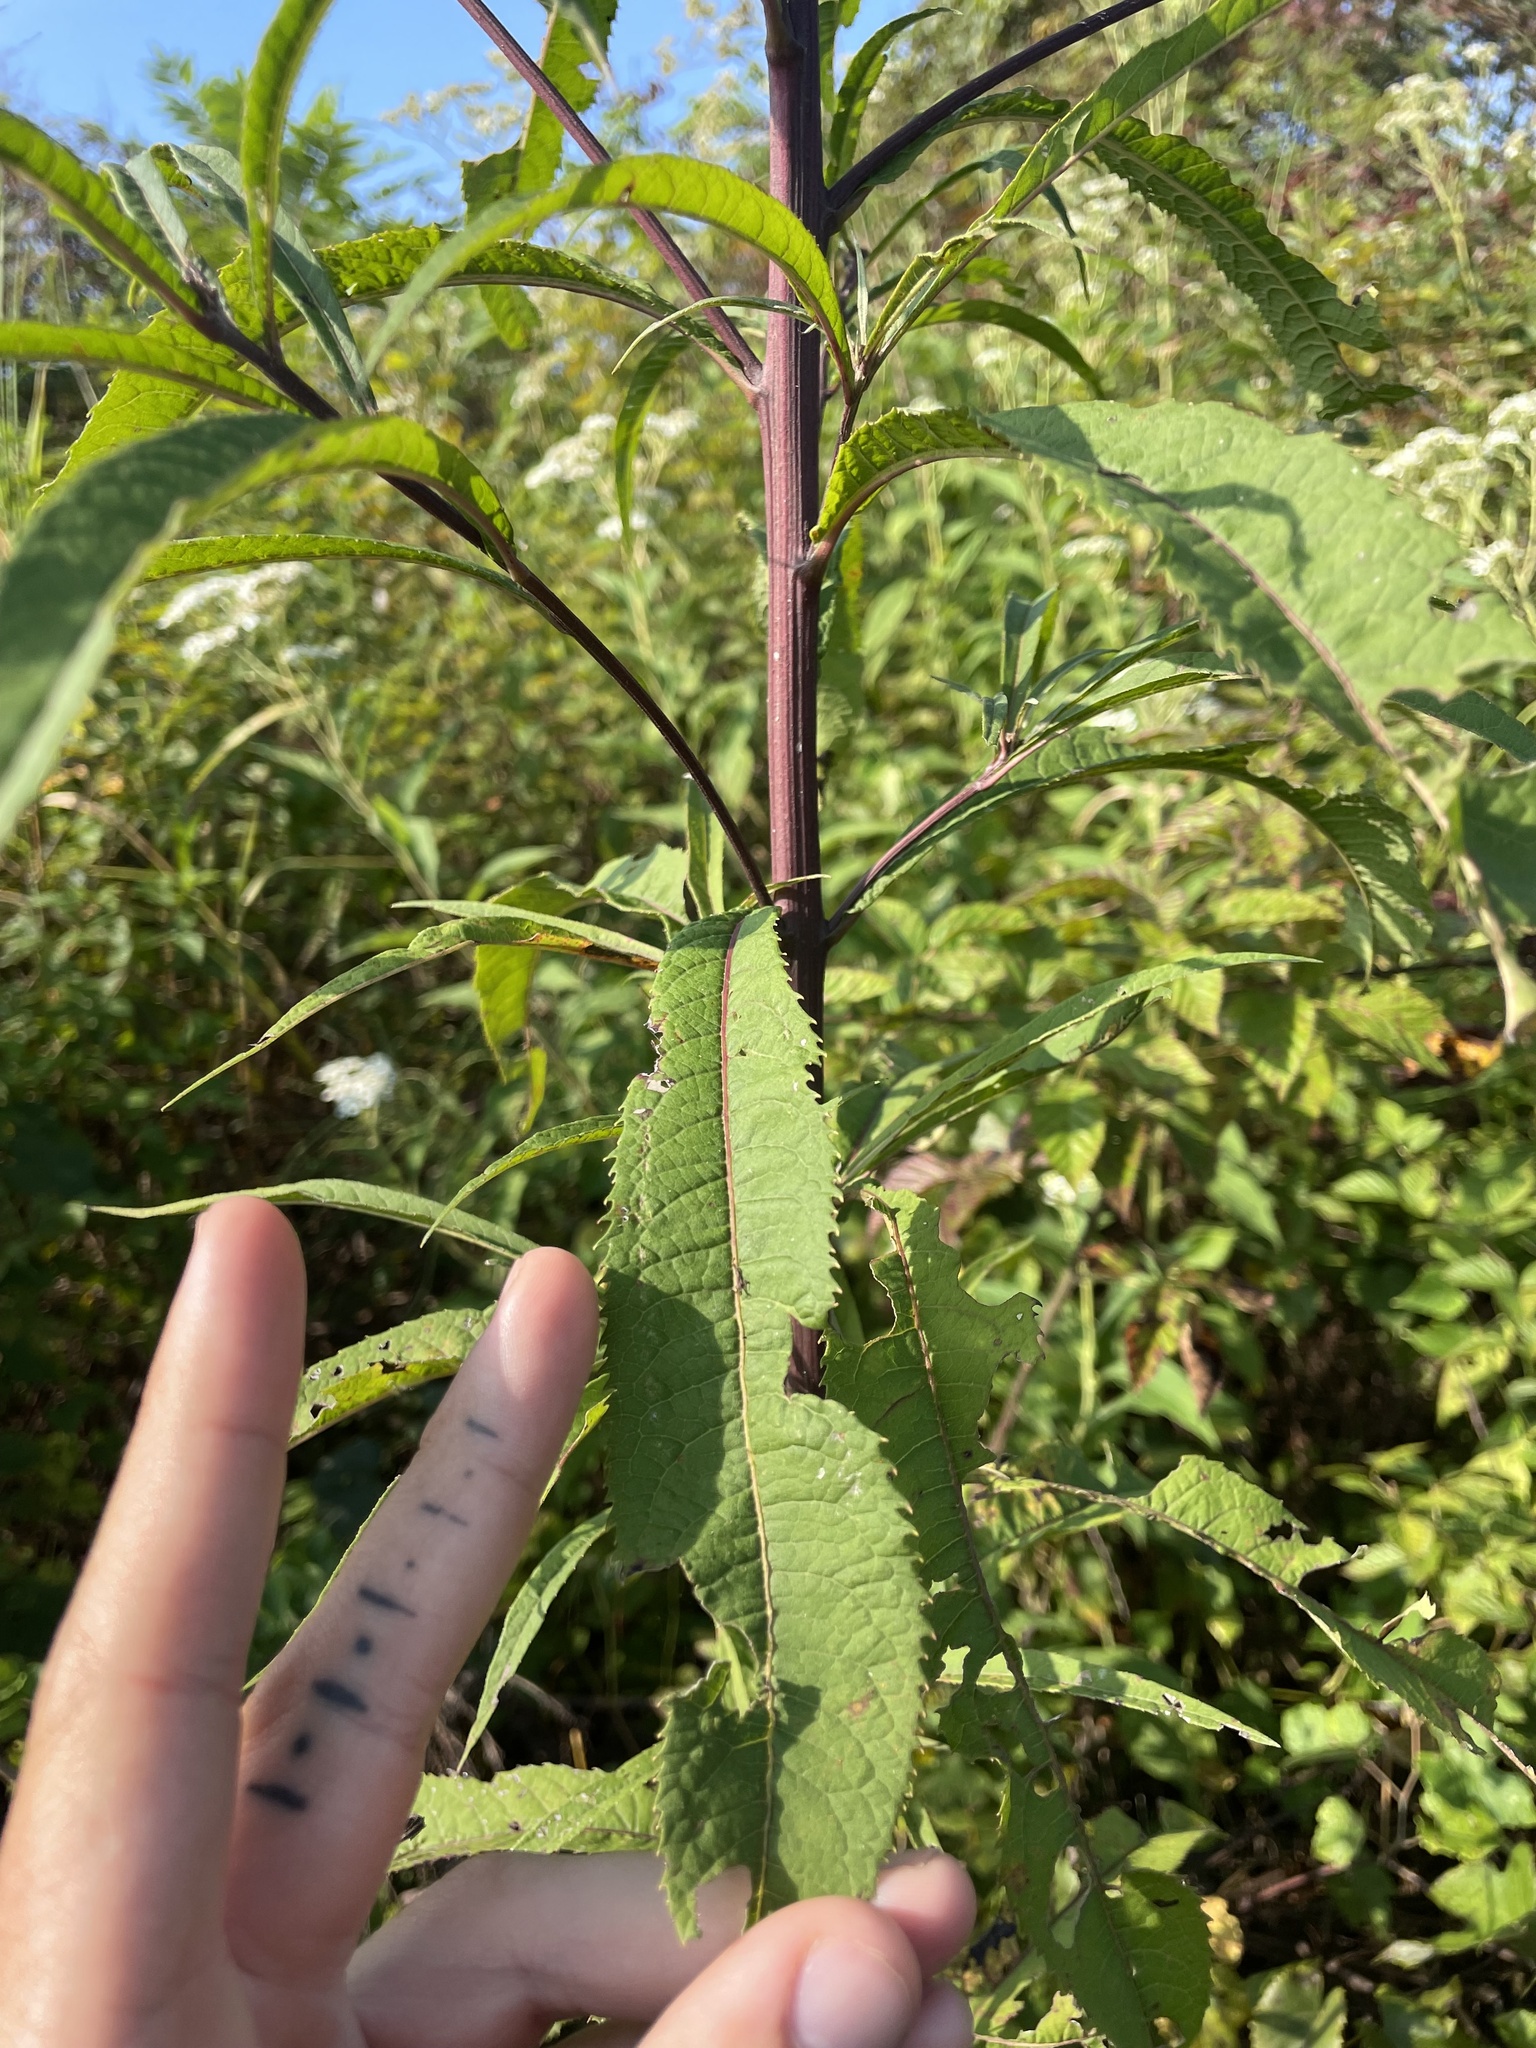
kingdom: Plantae
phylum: Tracheophyta
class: Magnoliopsida
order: Asterales
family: Asteraceae
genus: Vernonia
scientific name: Vernonia gigantea
